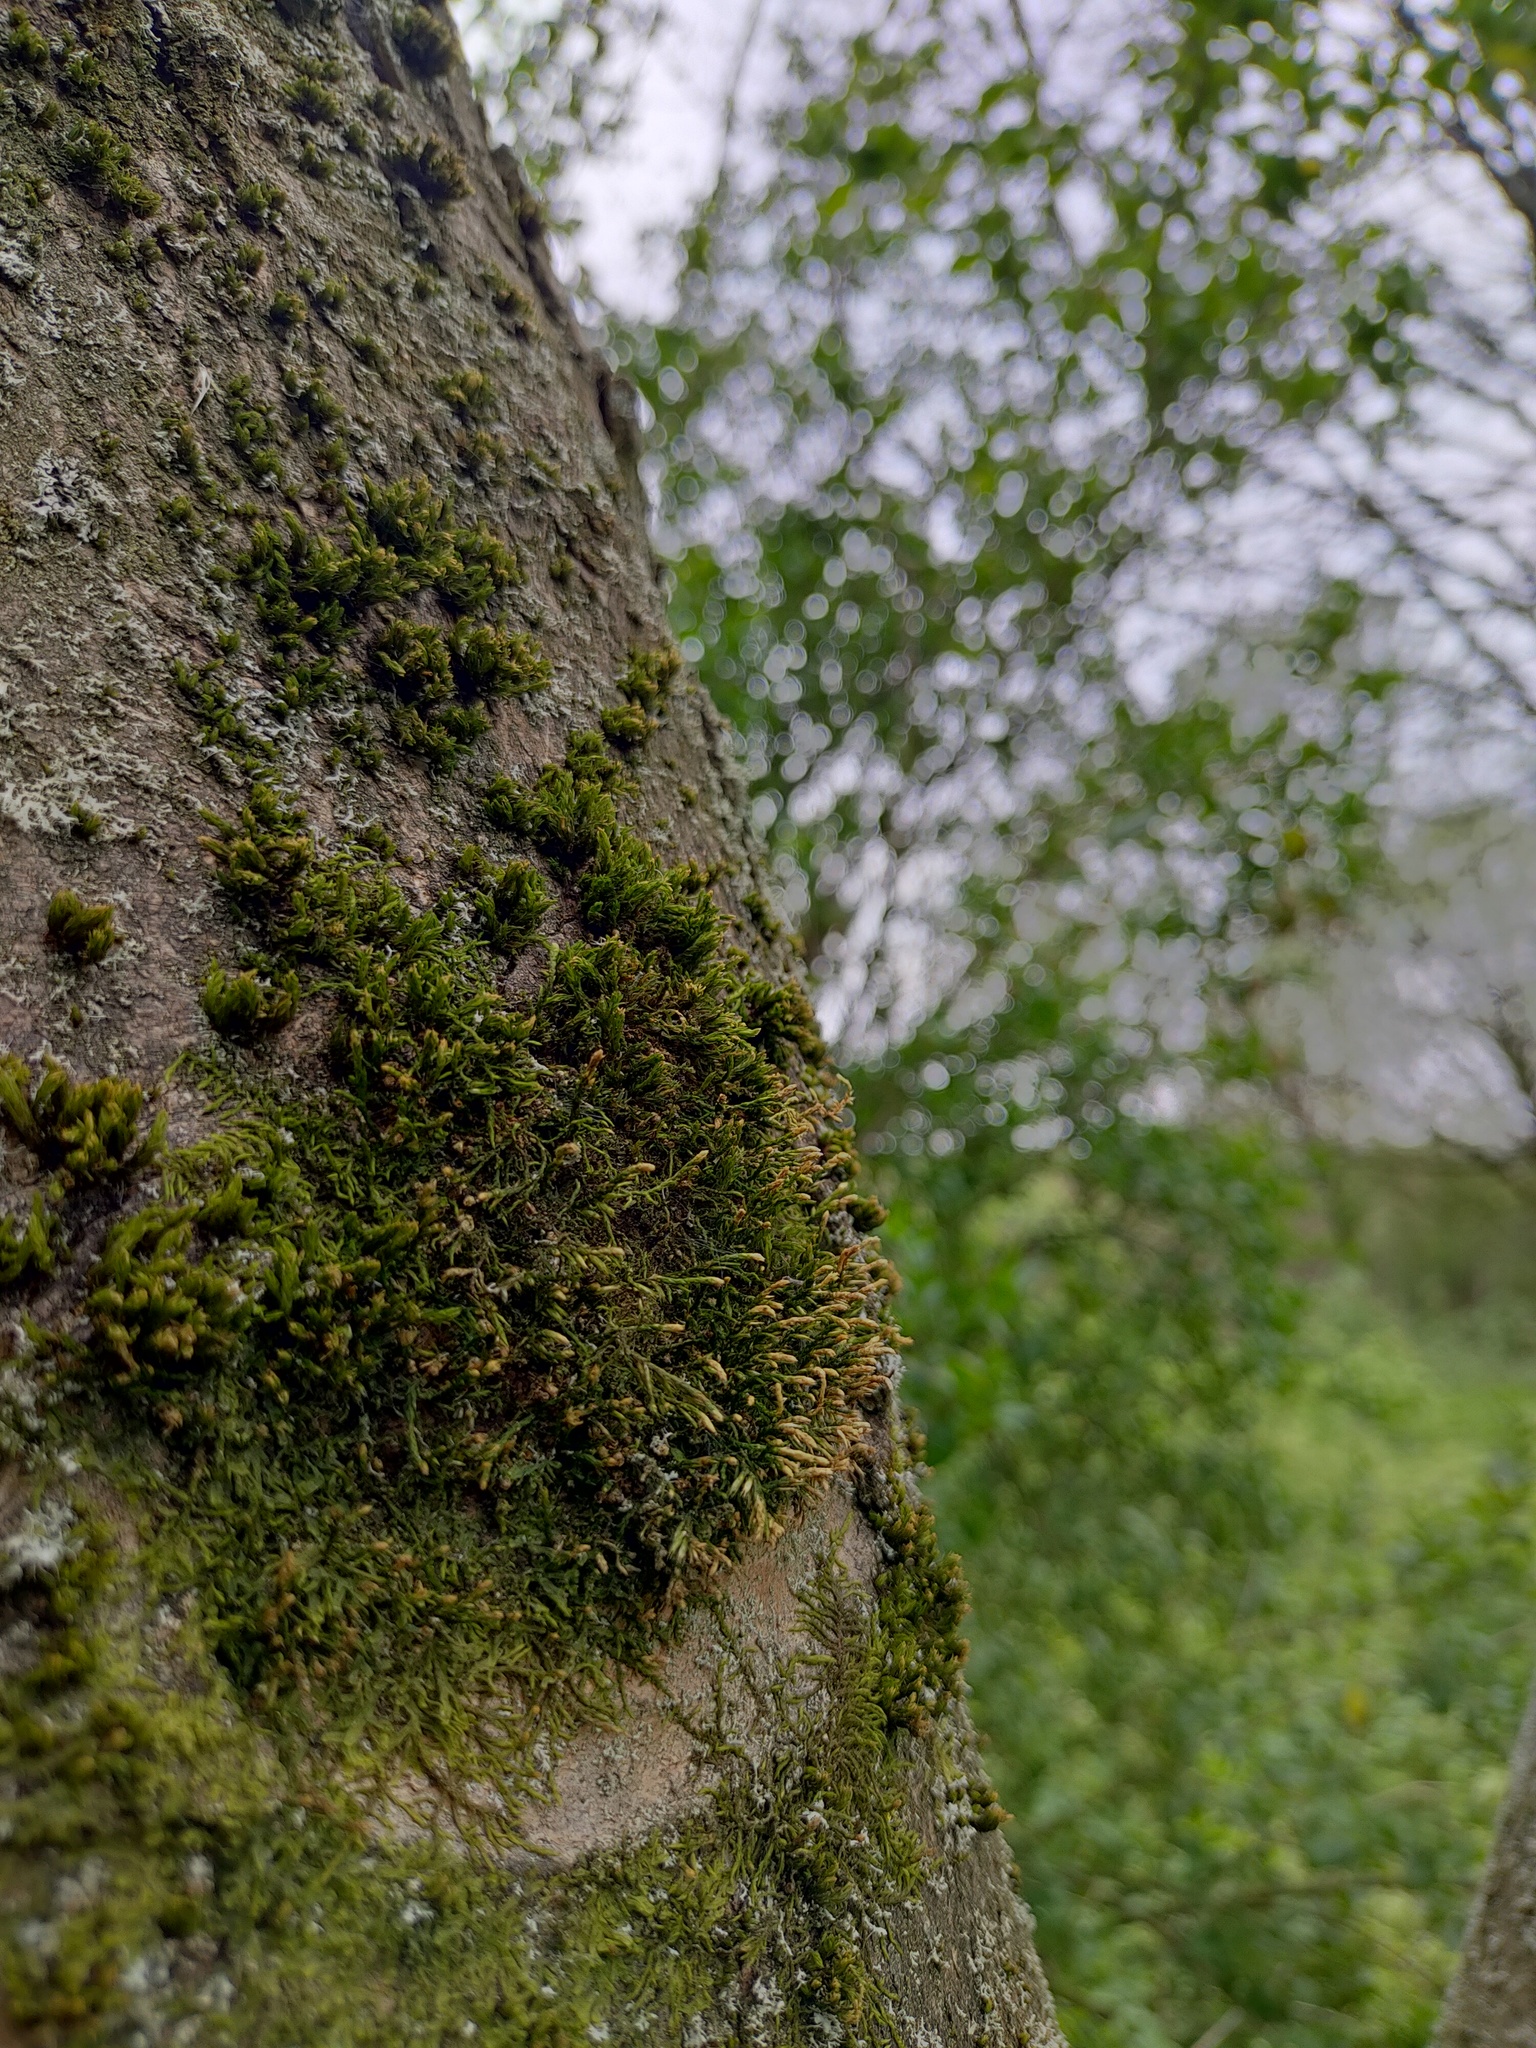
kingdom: Plantae
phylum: Bryophyta
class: Bryopsida
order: Hypnales
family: Cryphaeaceae
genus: Cryphaea
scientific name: Cryphaea heteromalla
